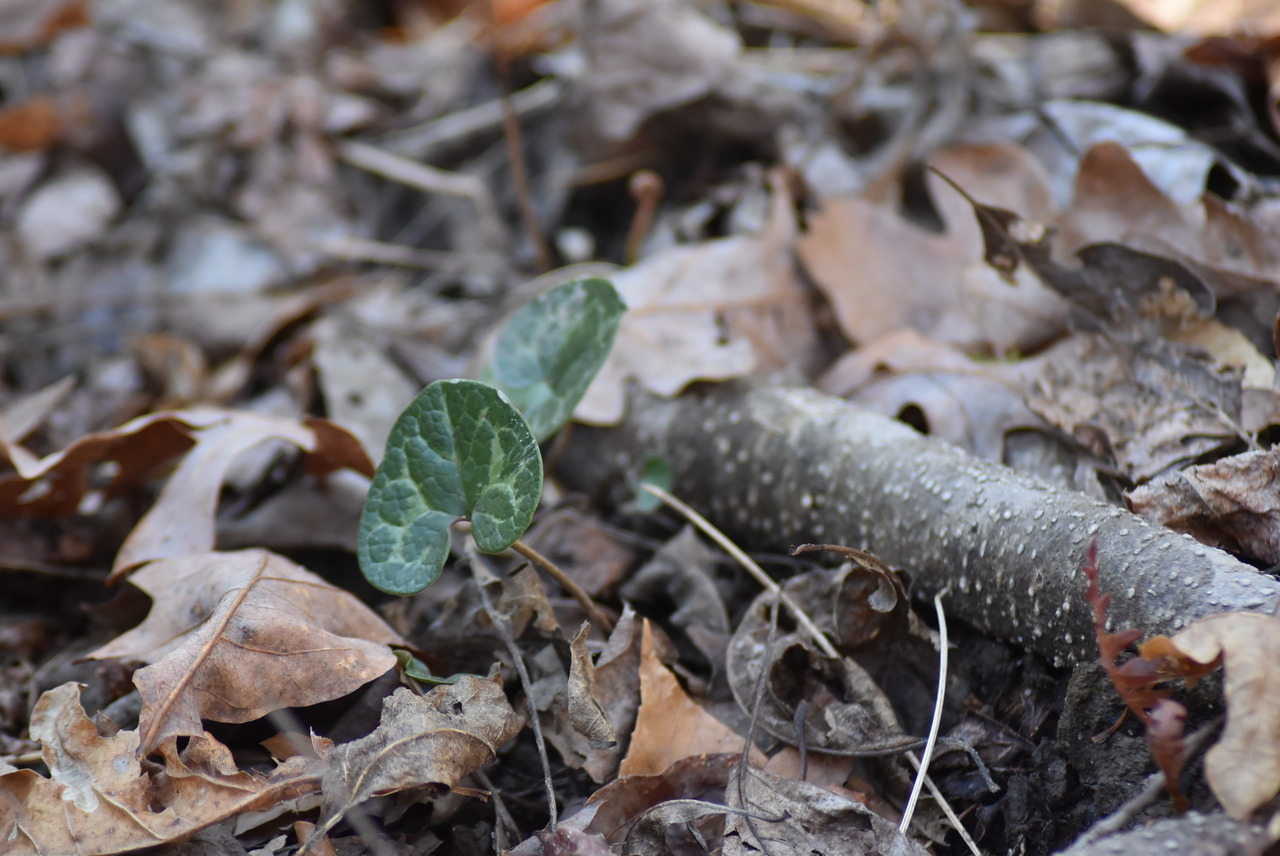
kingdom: Plantae
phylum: Tracheophyta
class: Magnoliopsida
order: Piperales
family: Aristolochiaceae
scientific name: Aristolochiaceae
